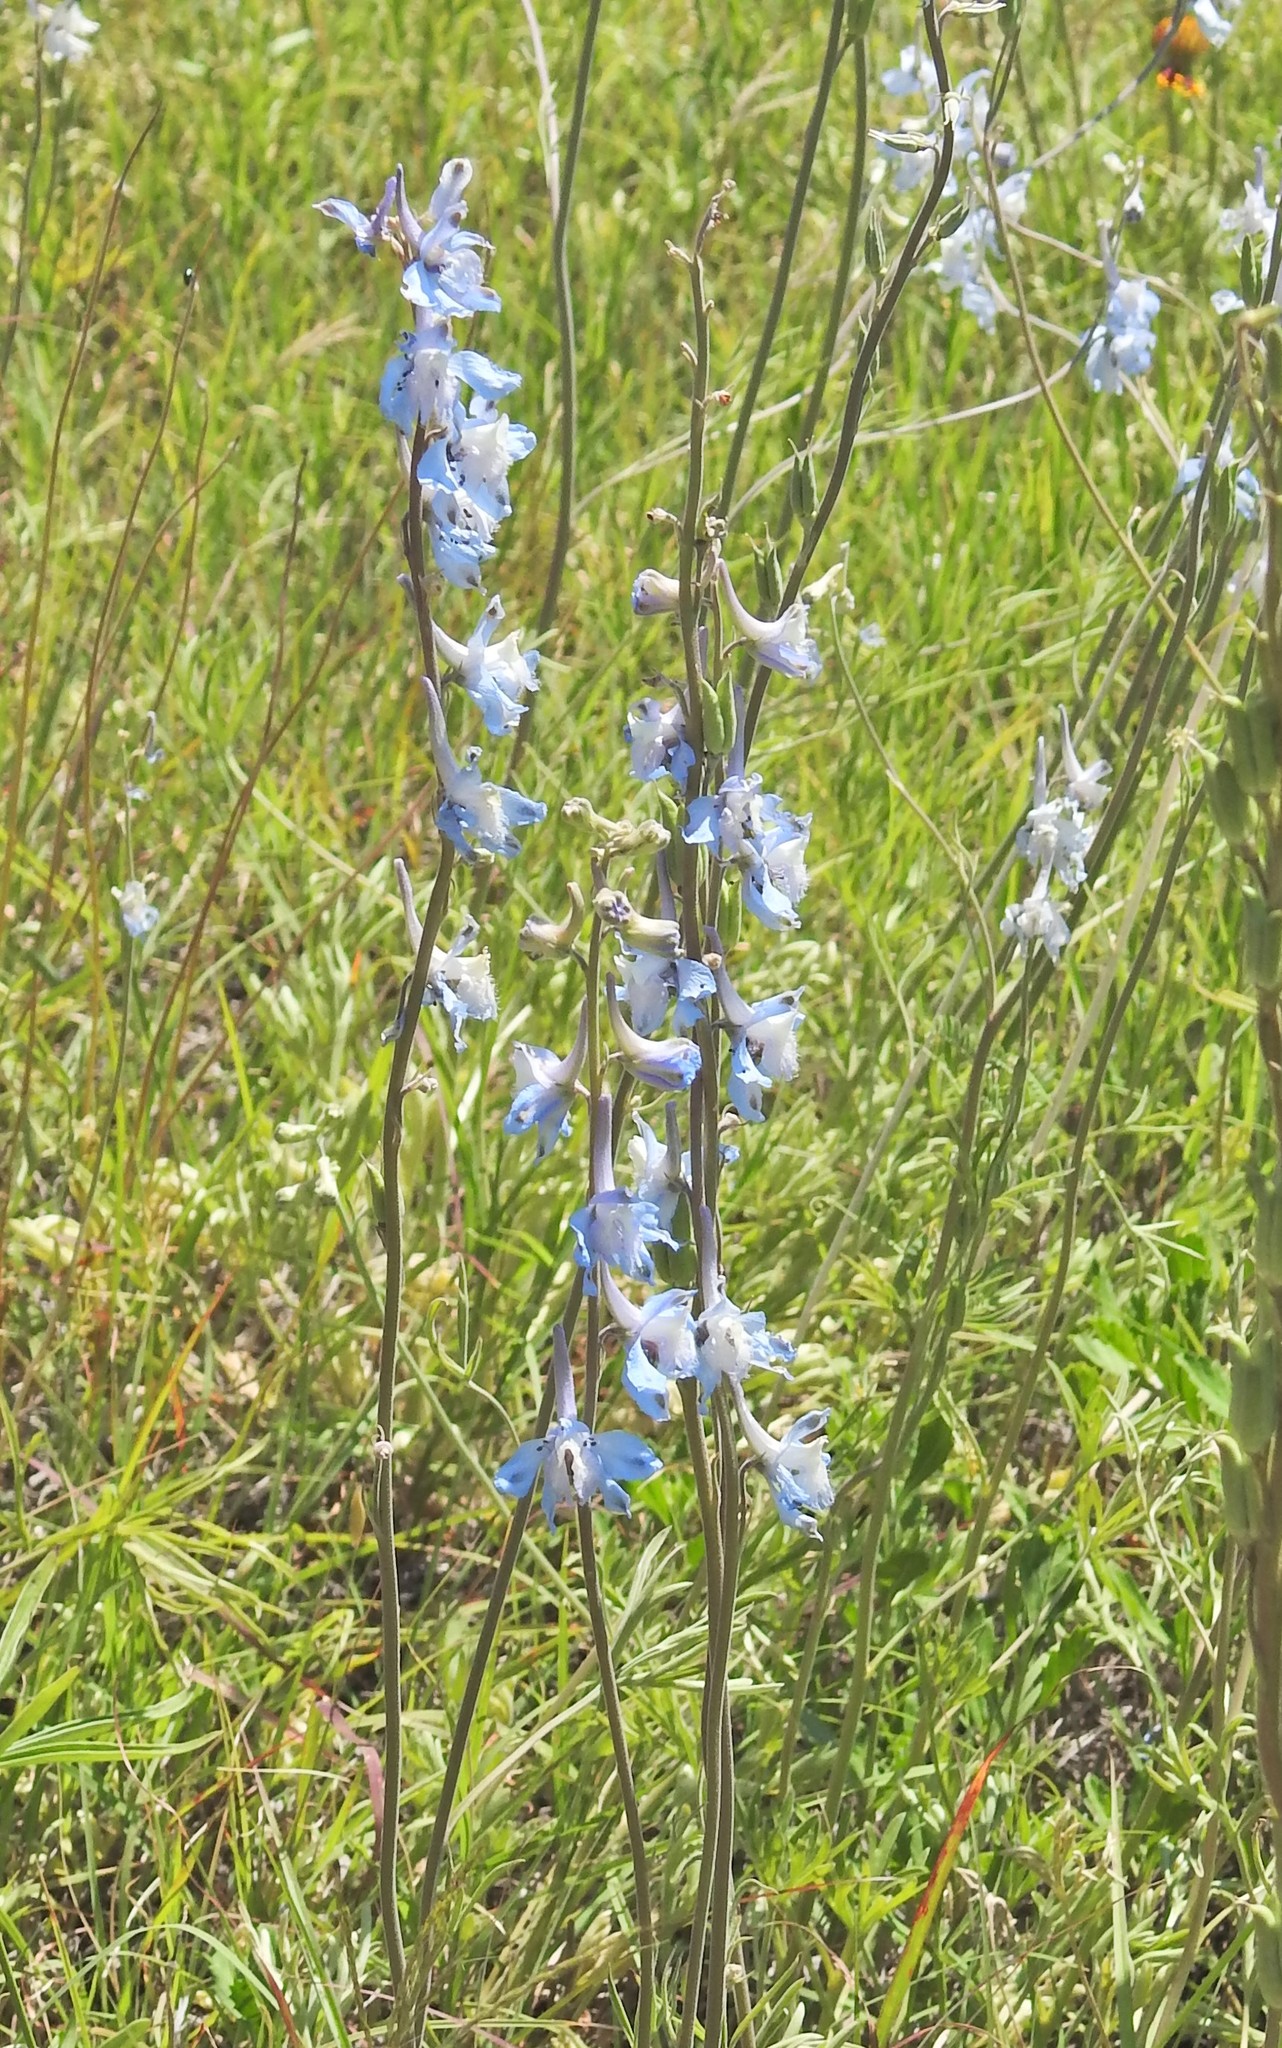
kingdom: Plantae
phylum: Tracheophyta
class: Magnoliopsida
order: Ranunculales
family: Ranunculaceae
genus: Delphinium
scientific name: Delphinium carolinianum
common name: Carolina larkspur
